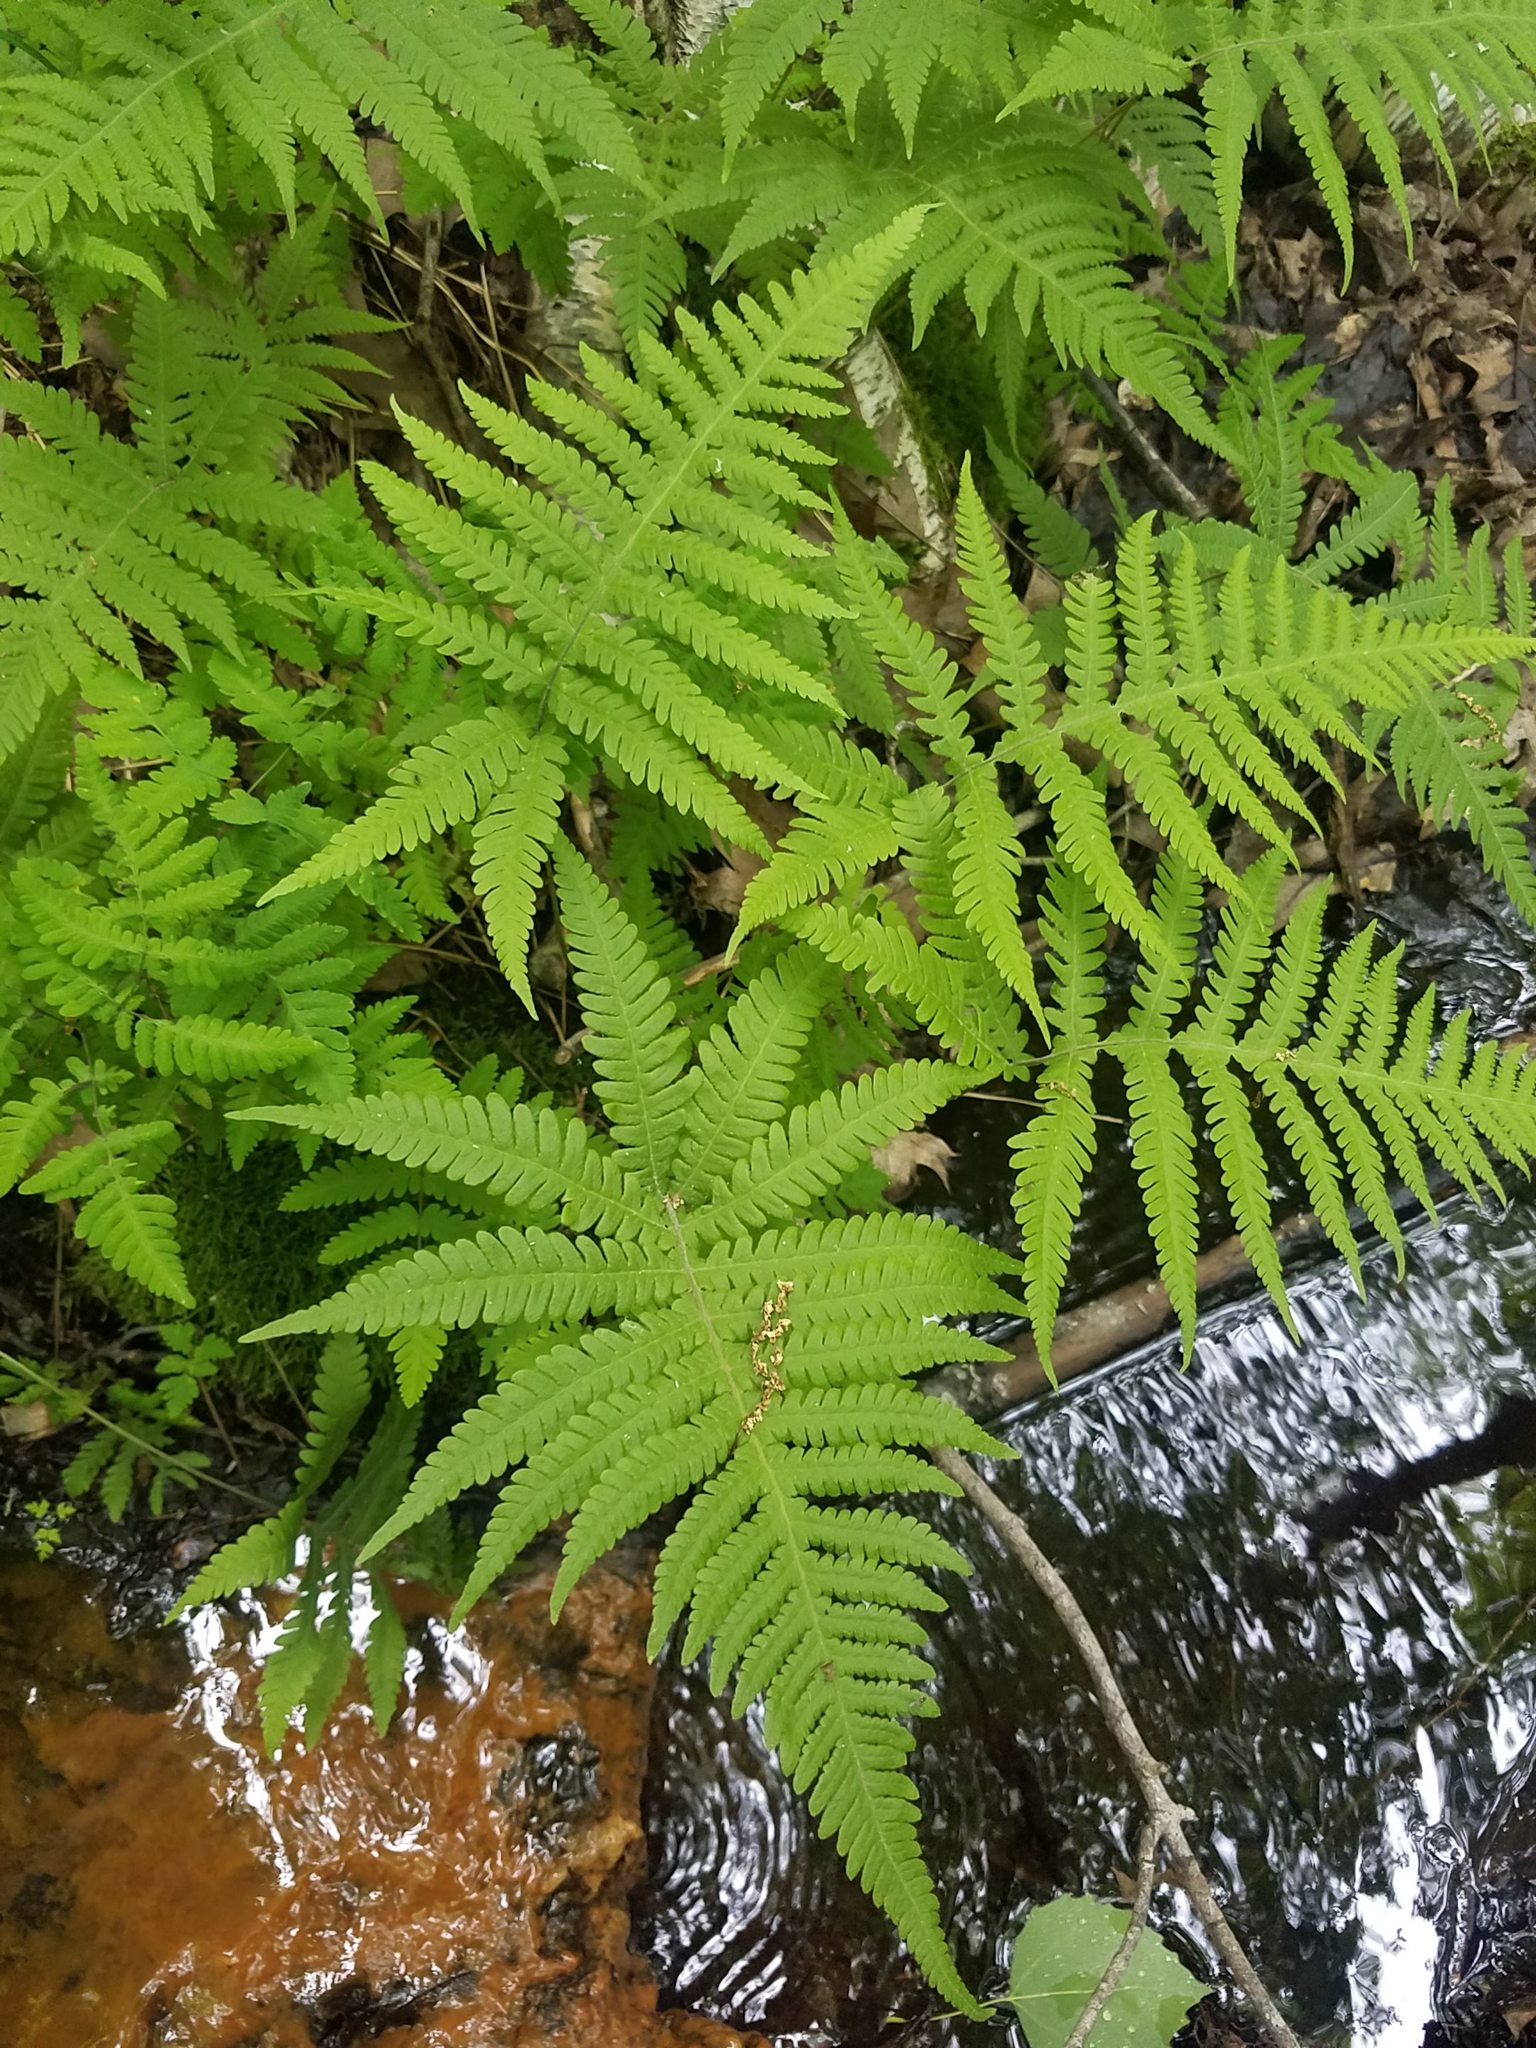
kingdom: Plantae
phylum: Tracheophyta
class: Polypodiopsida
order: Polypodiales
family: Thelypteridaceae
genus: Phegopteris
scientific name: Phegopteris connectilis
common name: Beech fern
